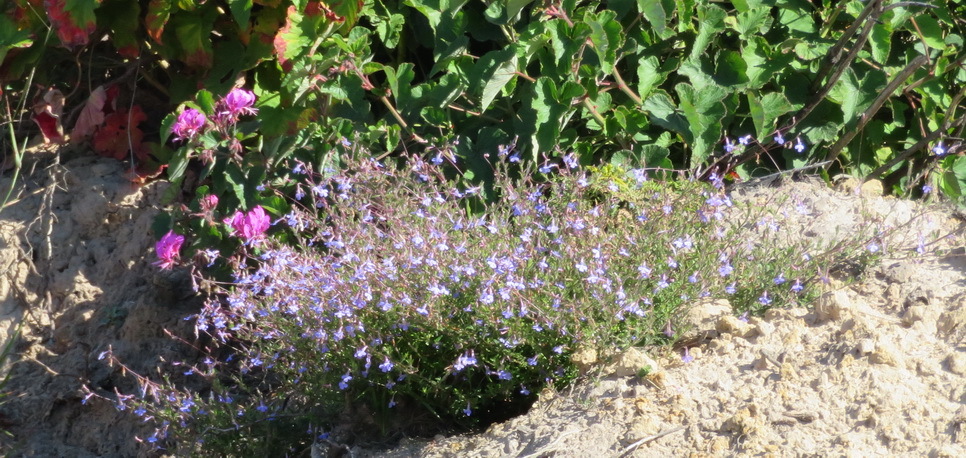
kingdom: Plantae
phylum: Tracheophyta
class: Magnoliopsida
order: Asterales
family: Campanulaceae
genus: Lobelia
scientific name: Lobelia neglecta
